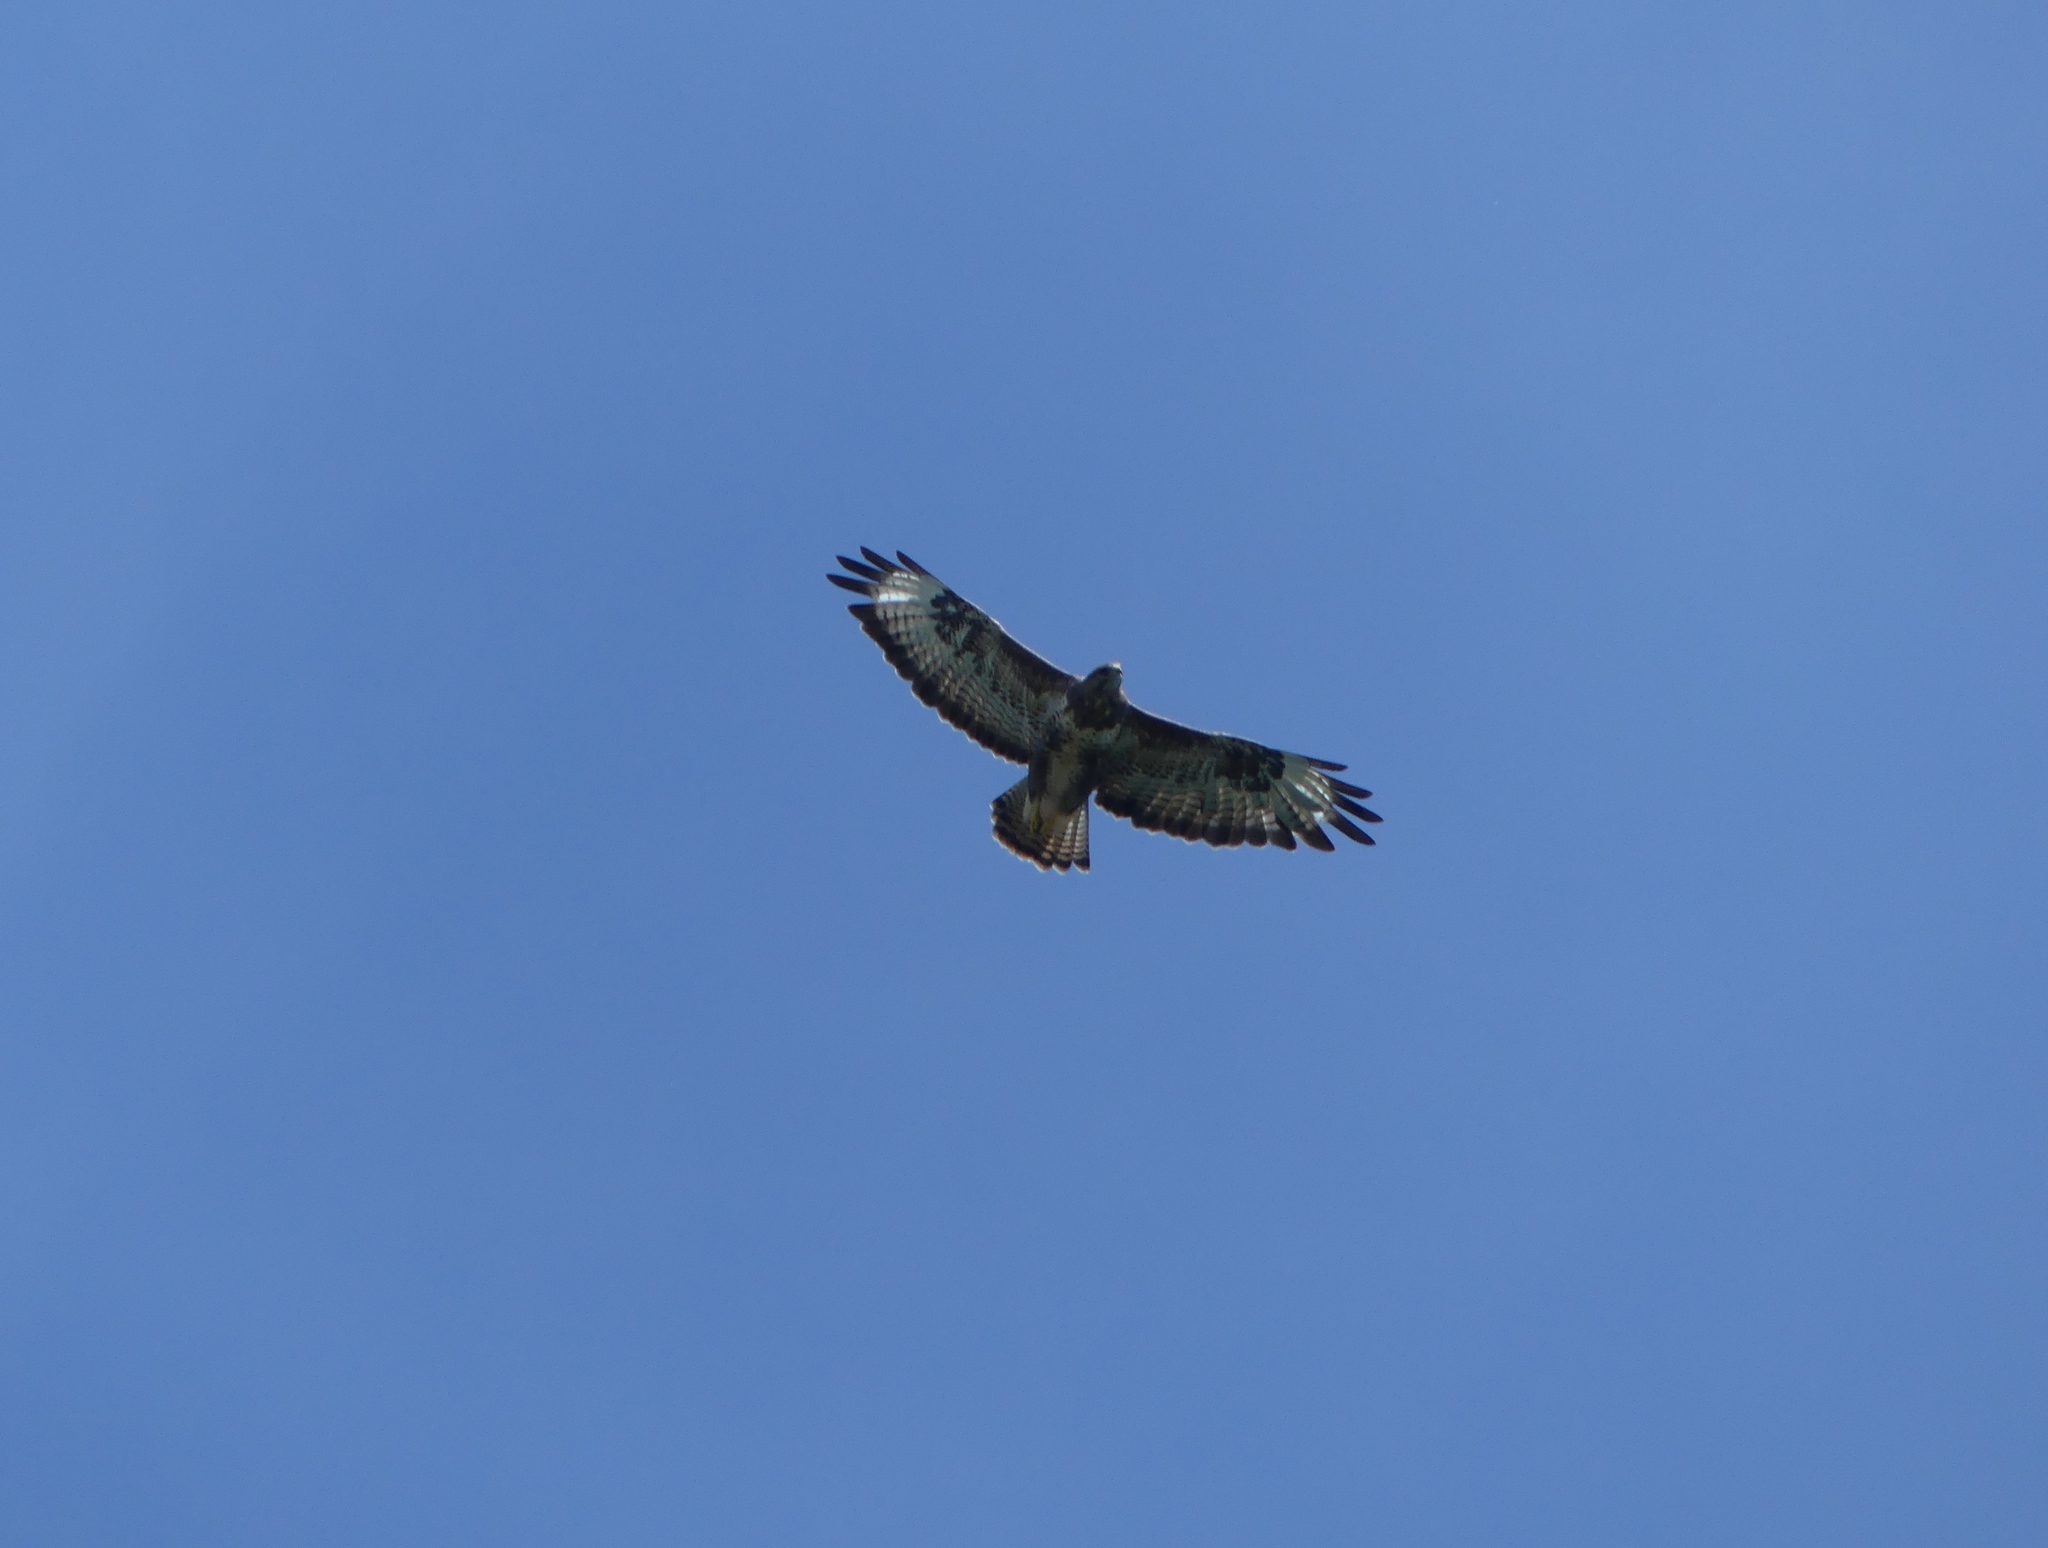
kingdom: Animalia
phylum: Chordata
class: Aves
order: Accipitriformes
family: Accipitridae
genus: Buteo
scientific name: Buteo buteo
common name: Common buzzard
